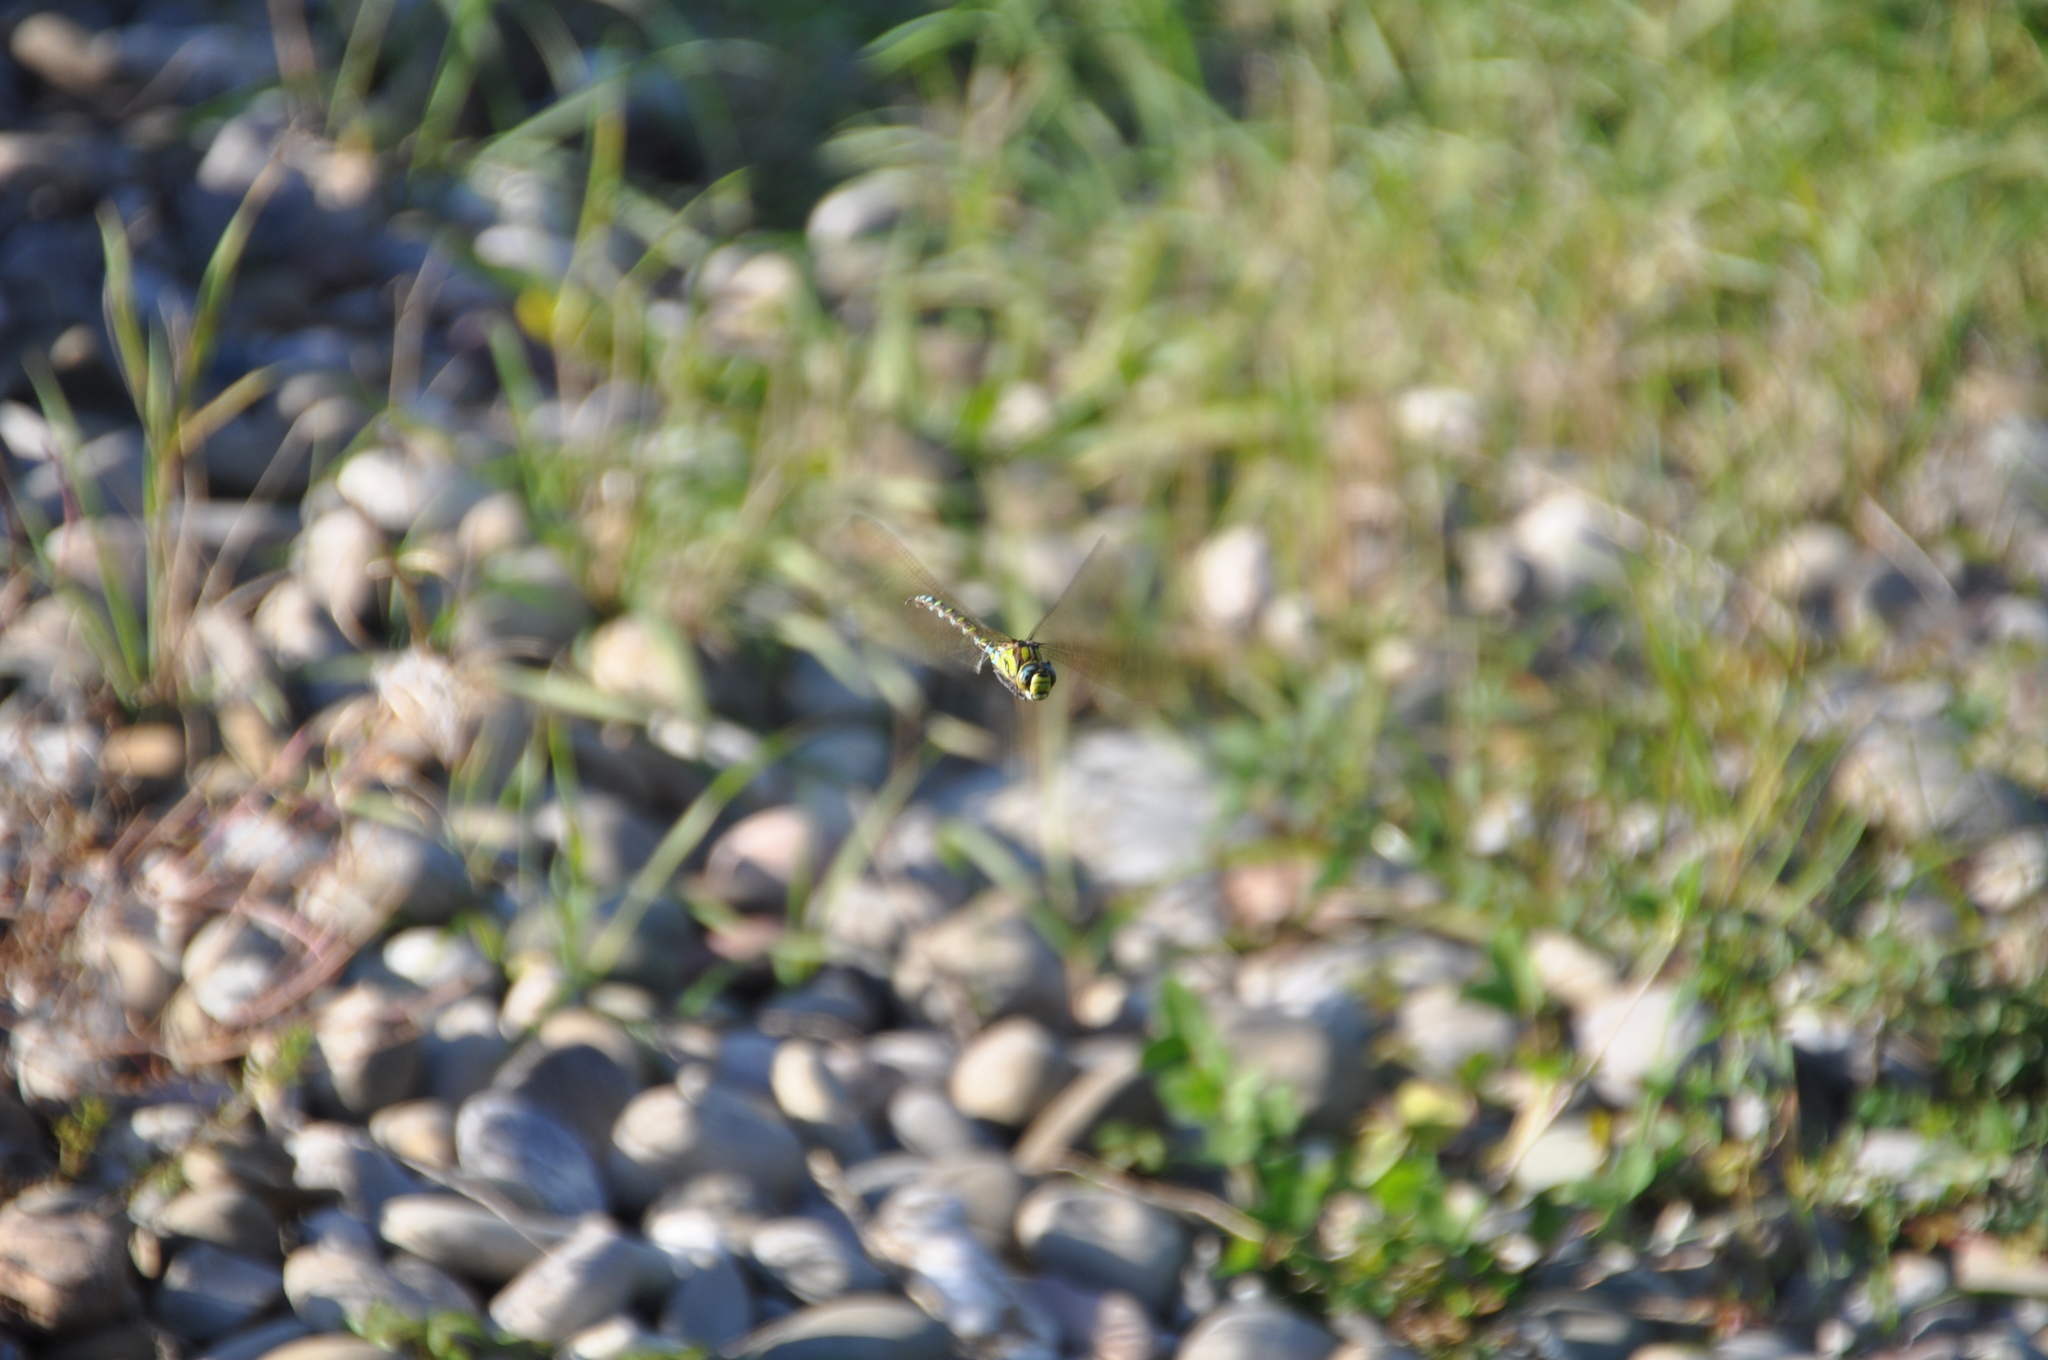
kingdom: Animalia
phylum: Arthropoda
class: Insecta
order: Odonata
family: Aeshnidae
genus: Aeshna
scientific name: Aeshna cyanea
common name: Southern hawker
